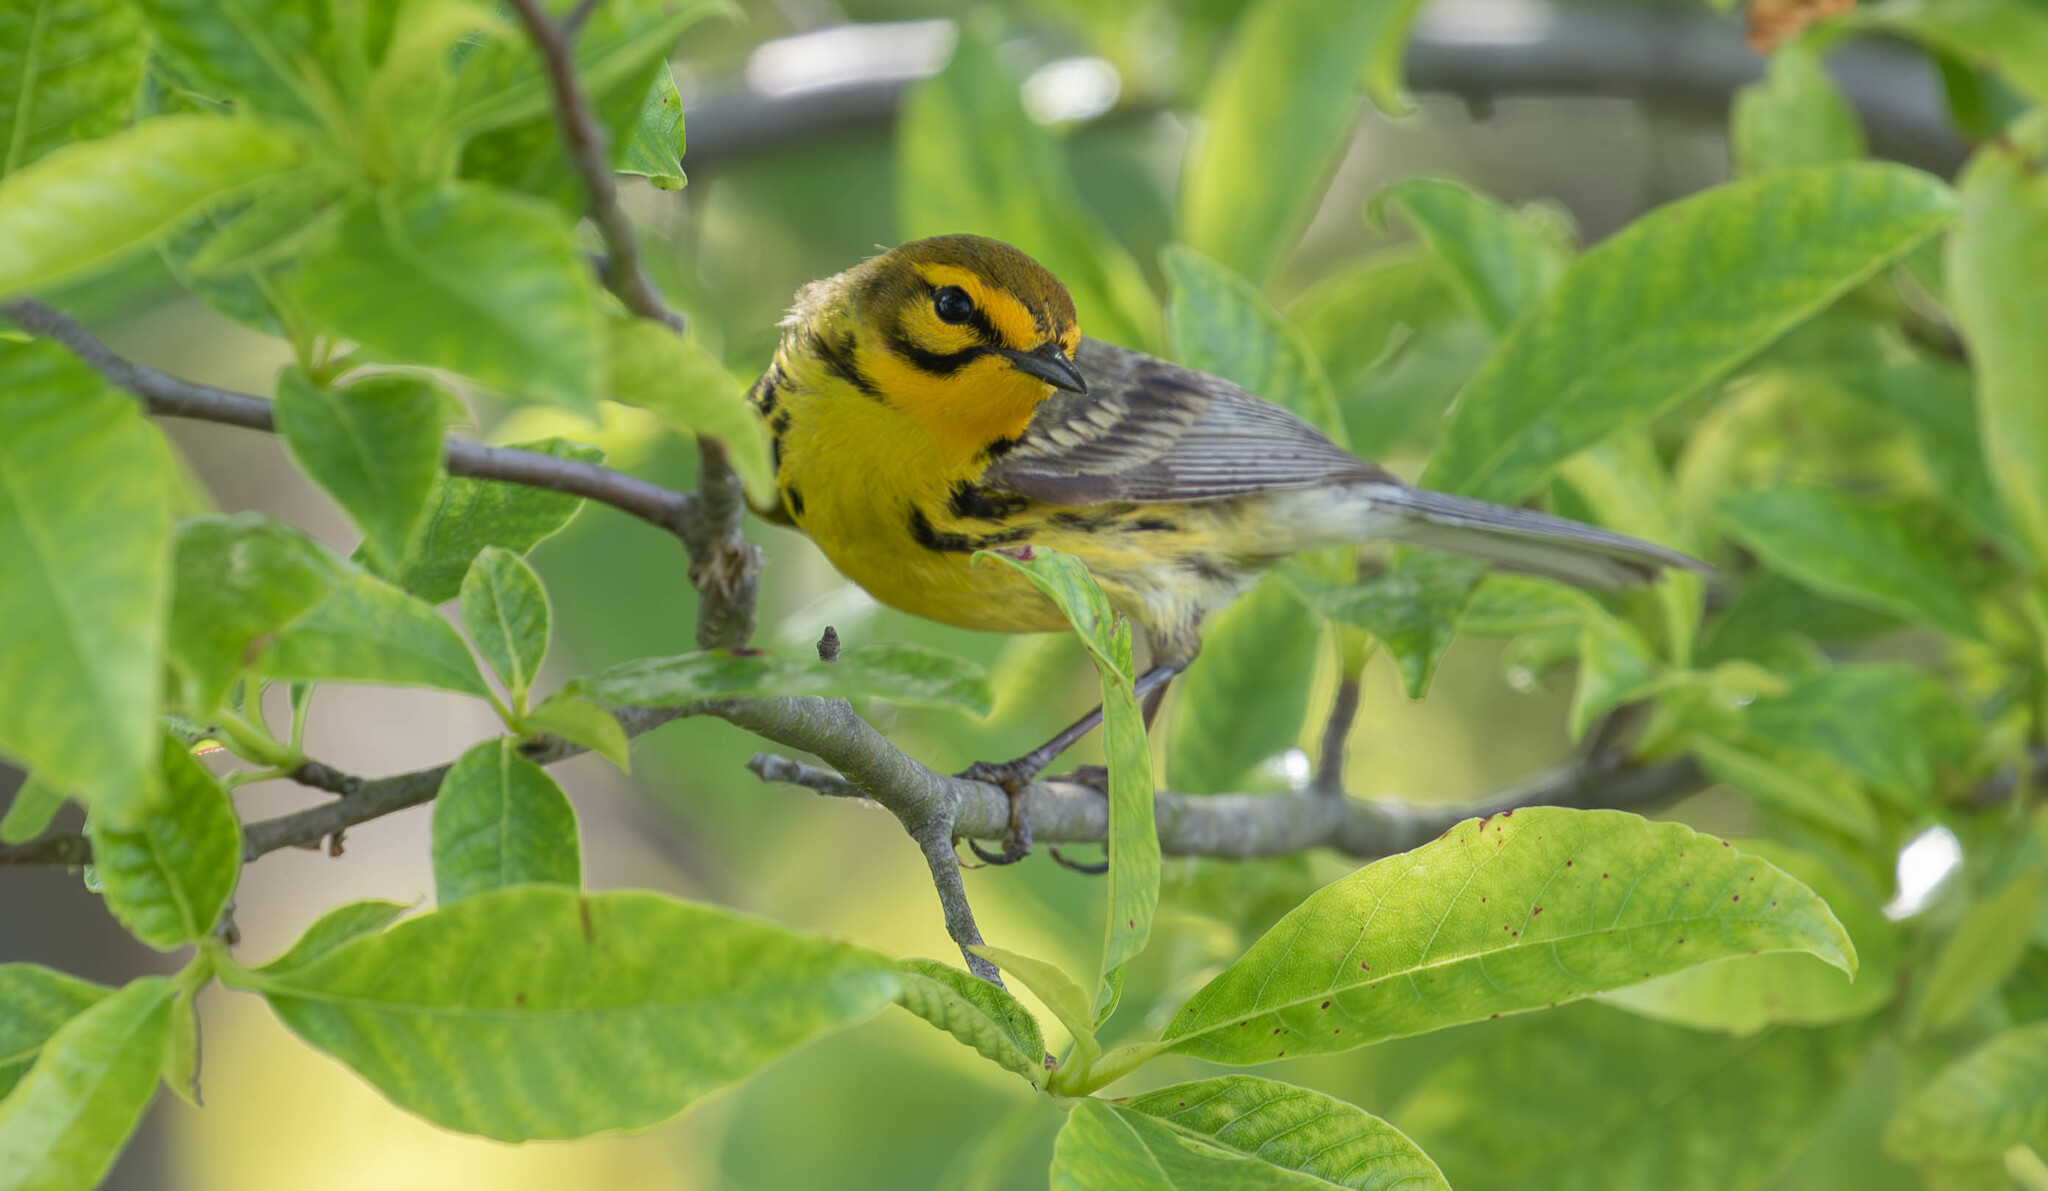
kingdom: Animalia
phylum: Chordata
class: Aves
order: Passeriformes
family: Parulidae
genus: Setophaga
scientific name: Setophaga discolor
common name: Prairie warbler
